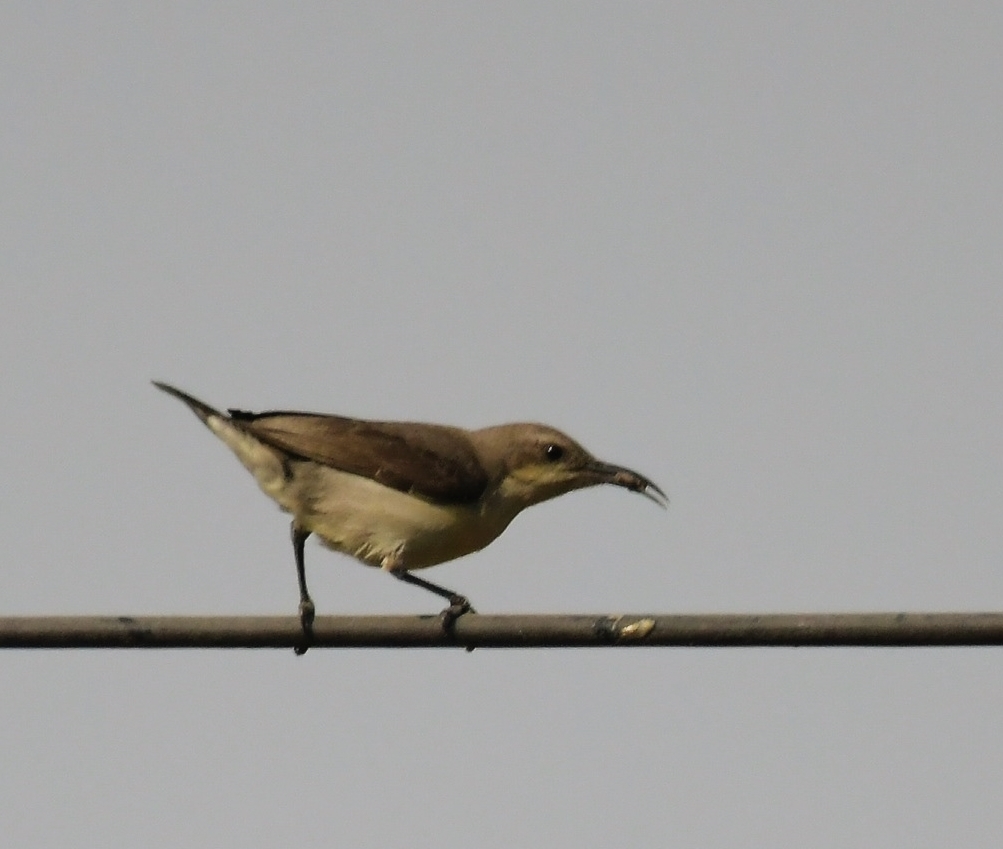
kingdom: Animalia
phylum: Chordata
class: Aves
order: Passeriformes
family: Nectariniidae
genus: Cinnyris
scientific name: Cinnyris asiaticus
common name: Purple sunbird
